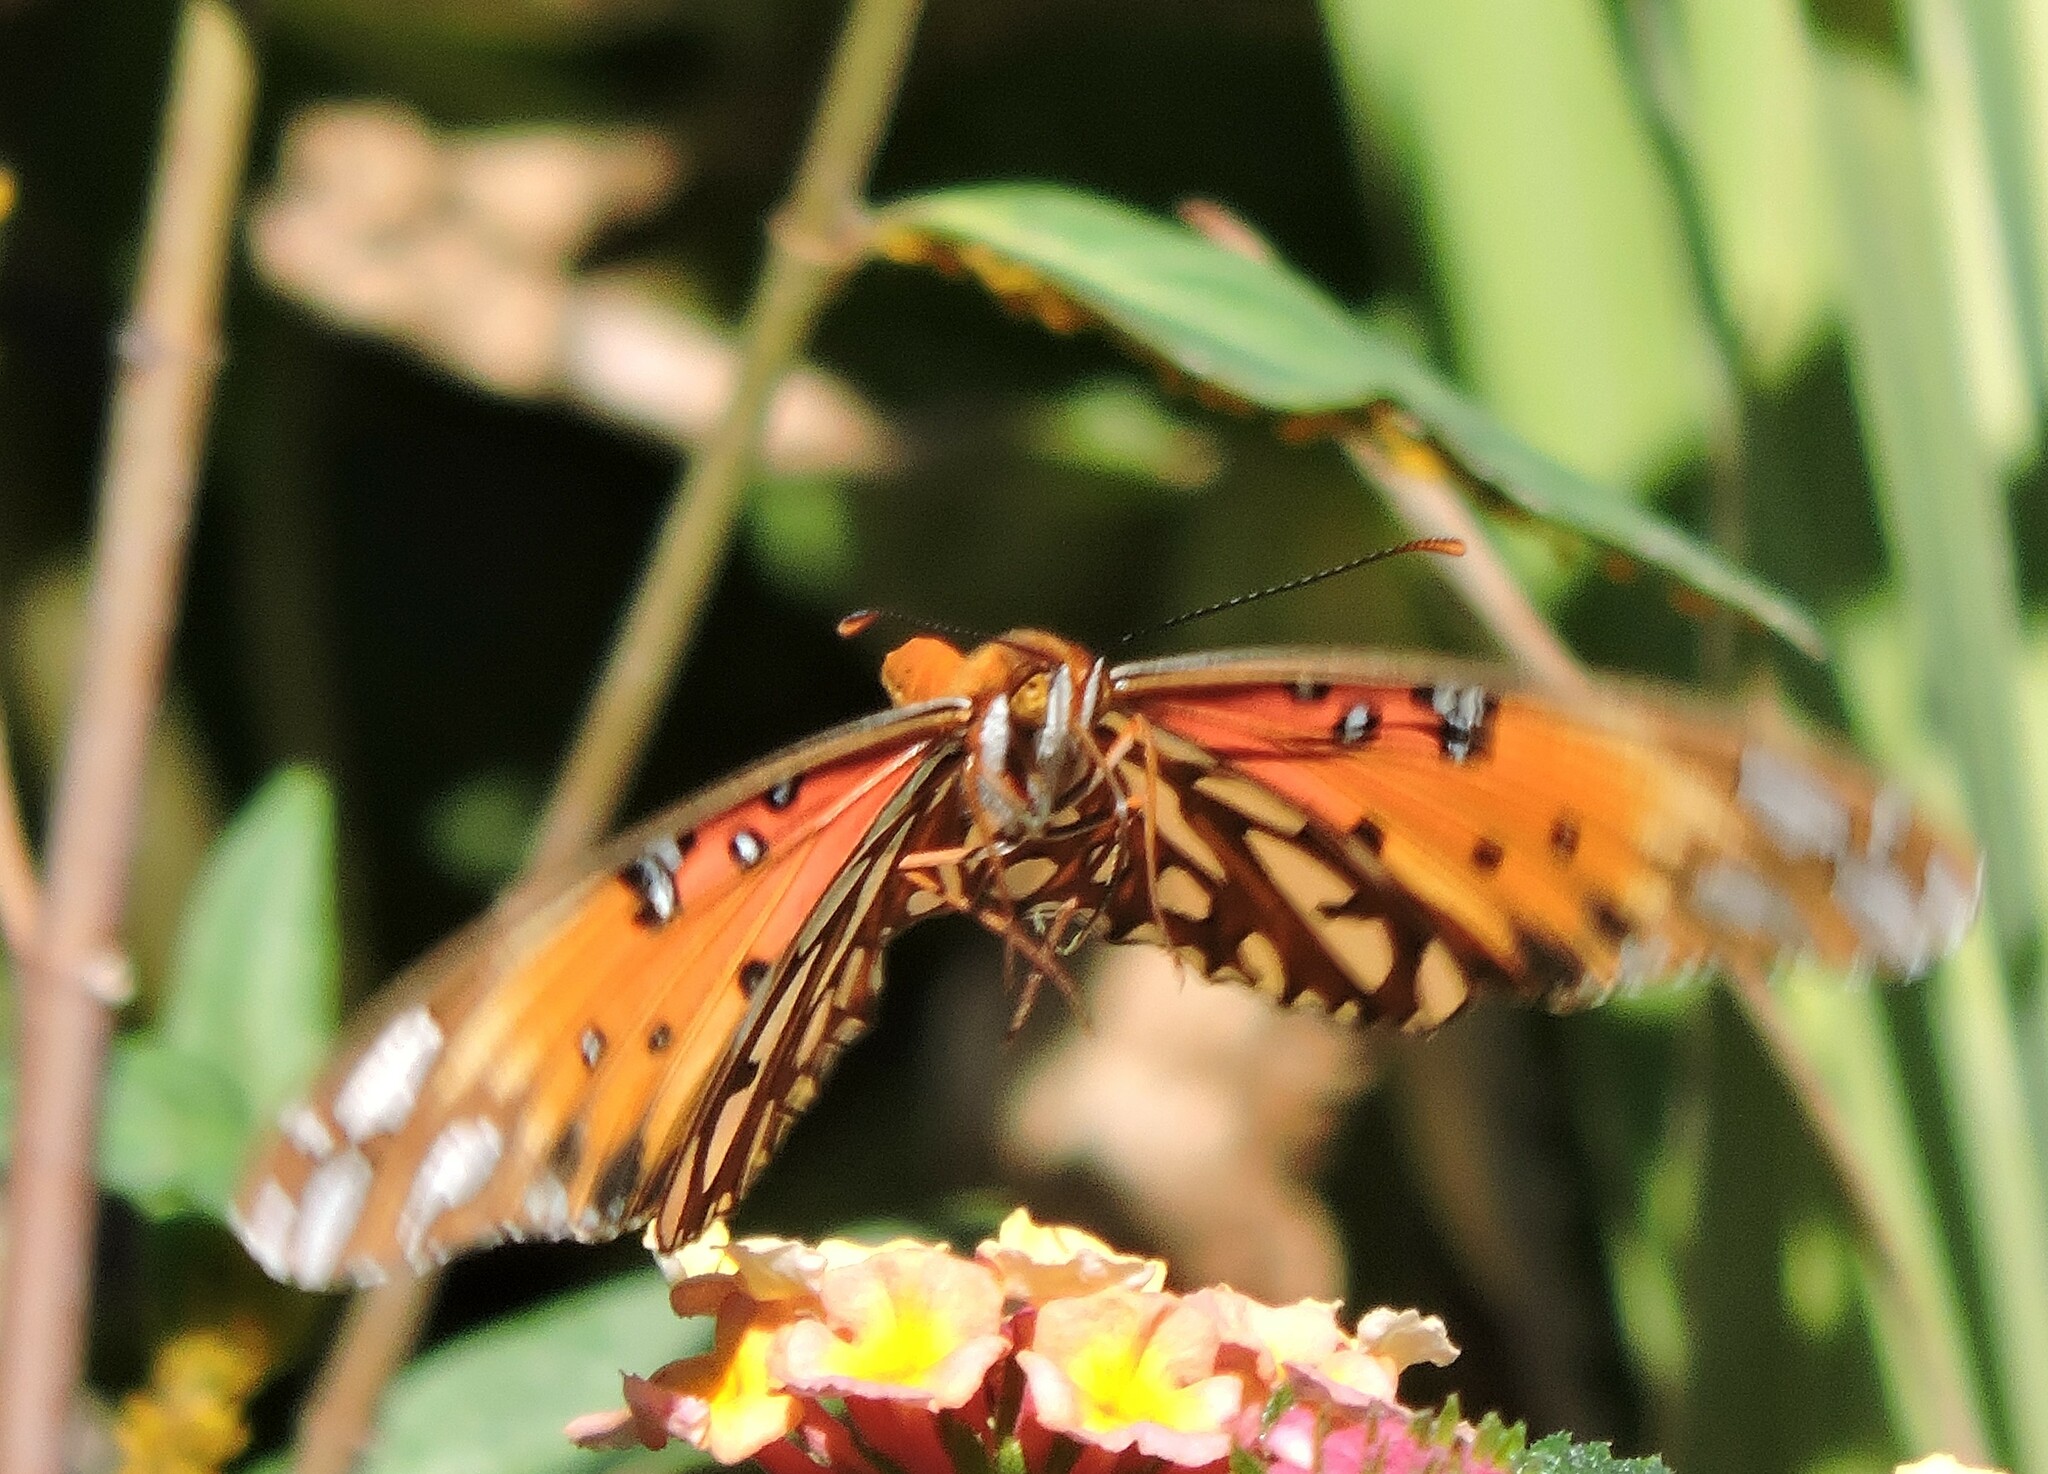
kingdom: Animalia
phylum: Arthropoda
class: Insecta
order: Lepidoptera
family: Nymphalidae
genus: Dione
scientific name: Dione vanillae
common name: Gulf fritillary
